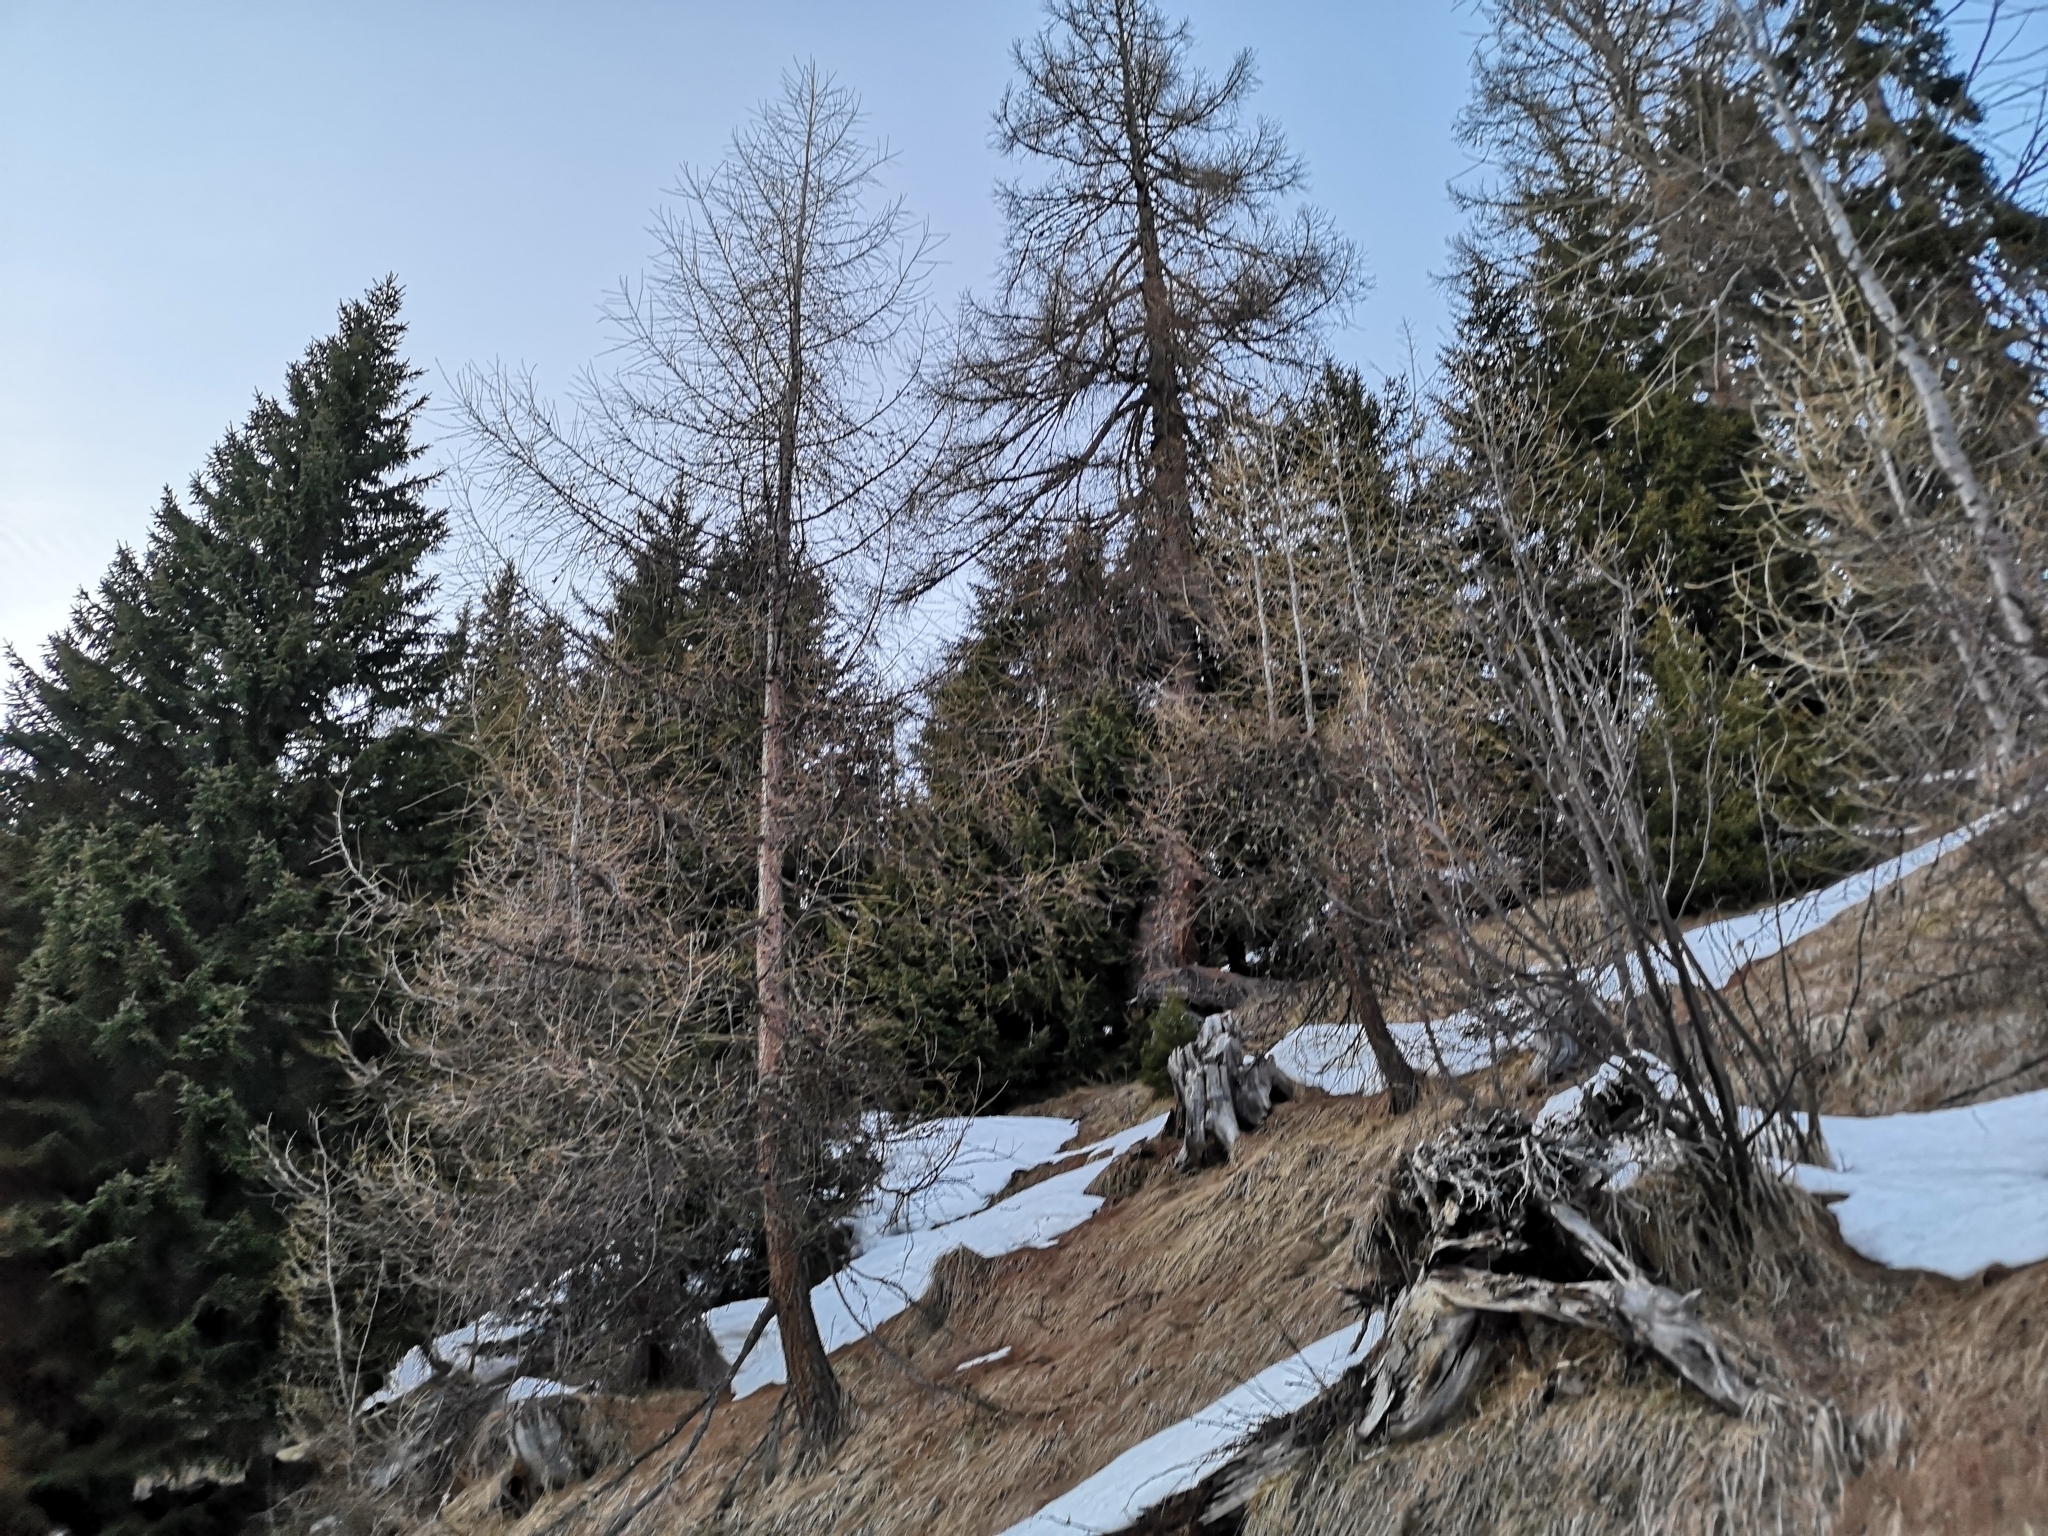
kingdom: Plantae
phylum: Tracheophyta
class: Pinopsida
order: Pinales
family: Pinaceae
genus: Larix
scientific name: Larix decidua
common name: European larch
